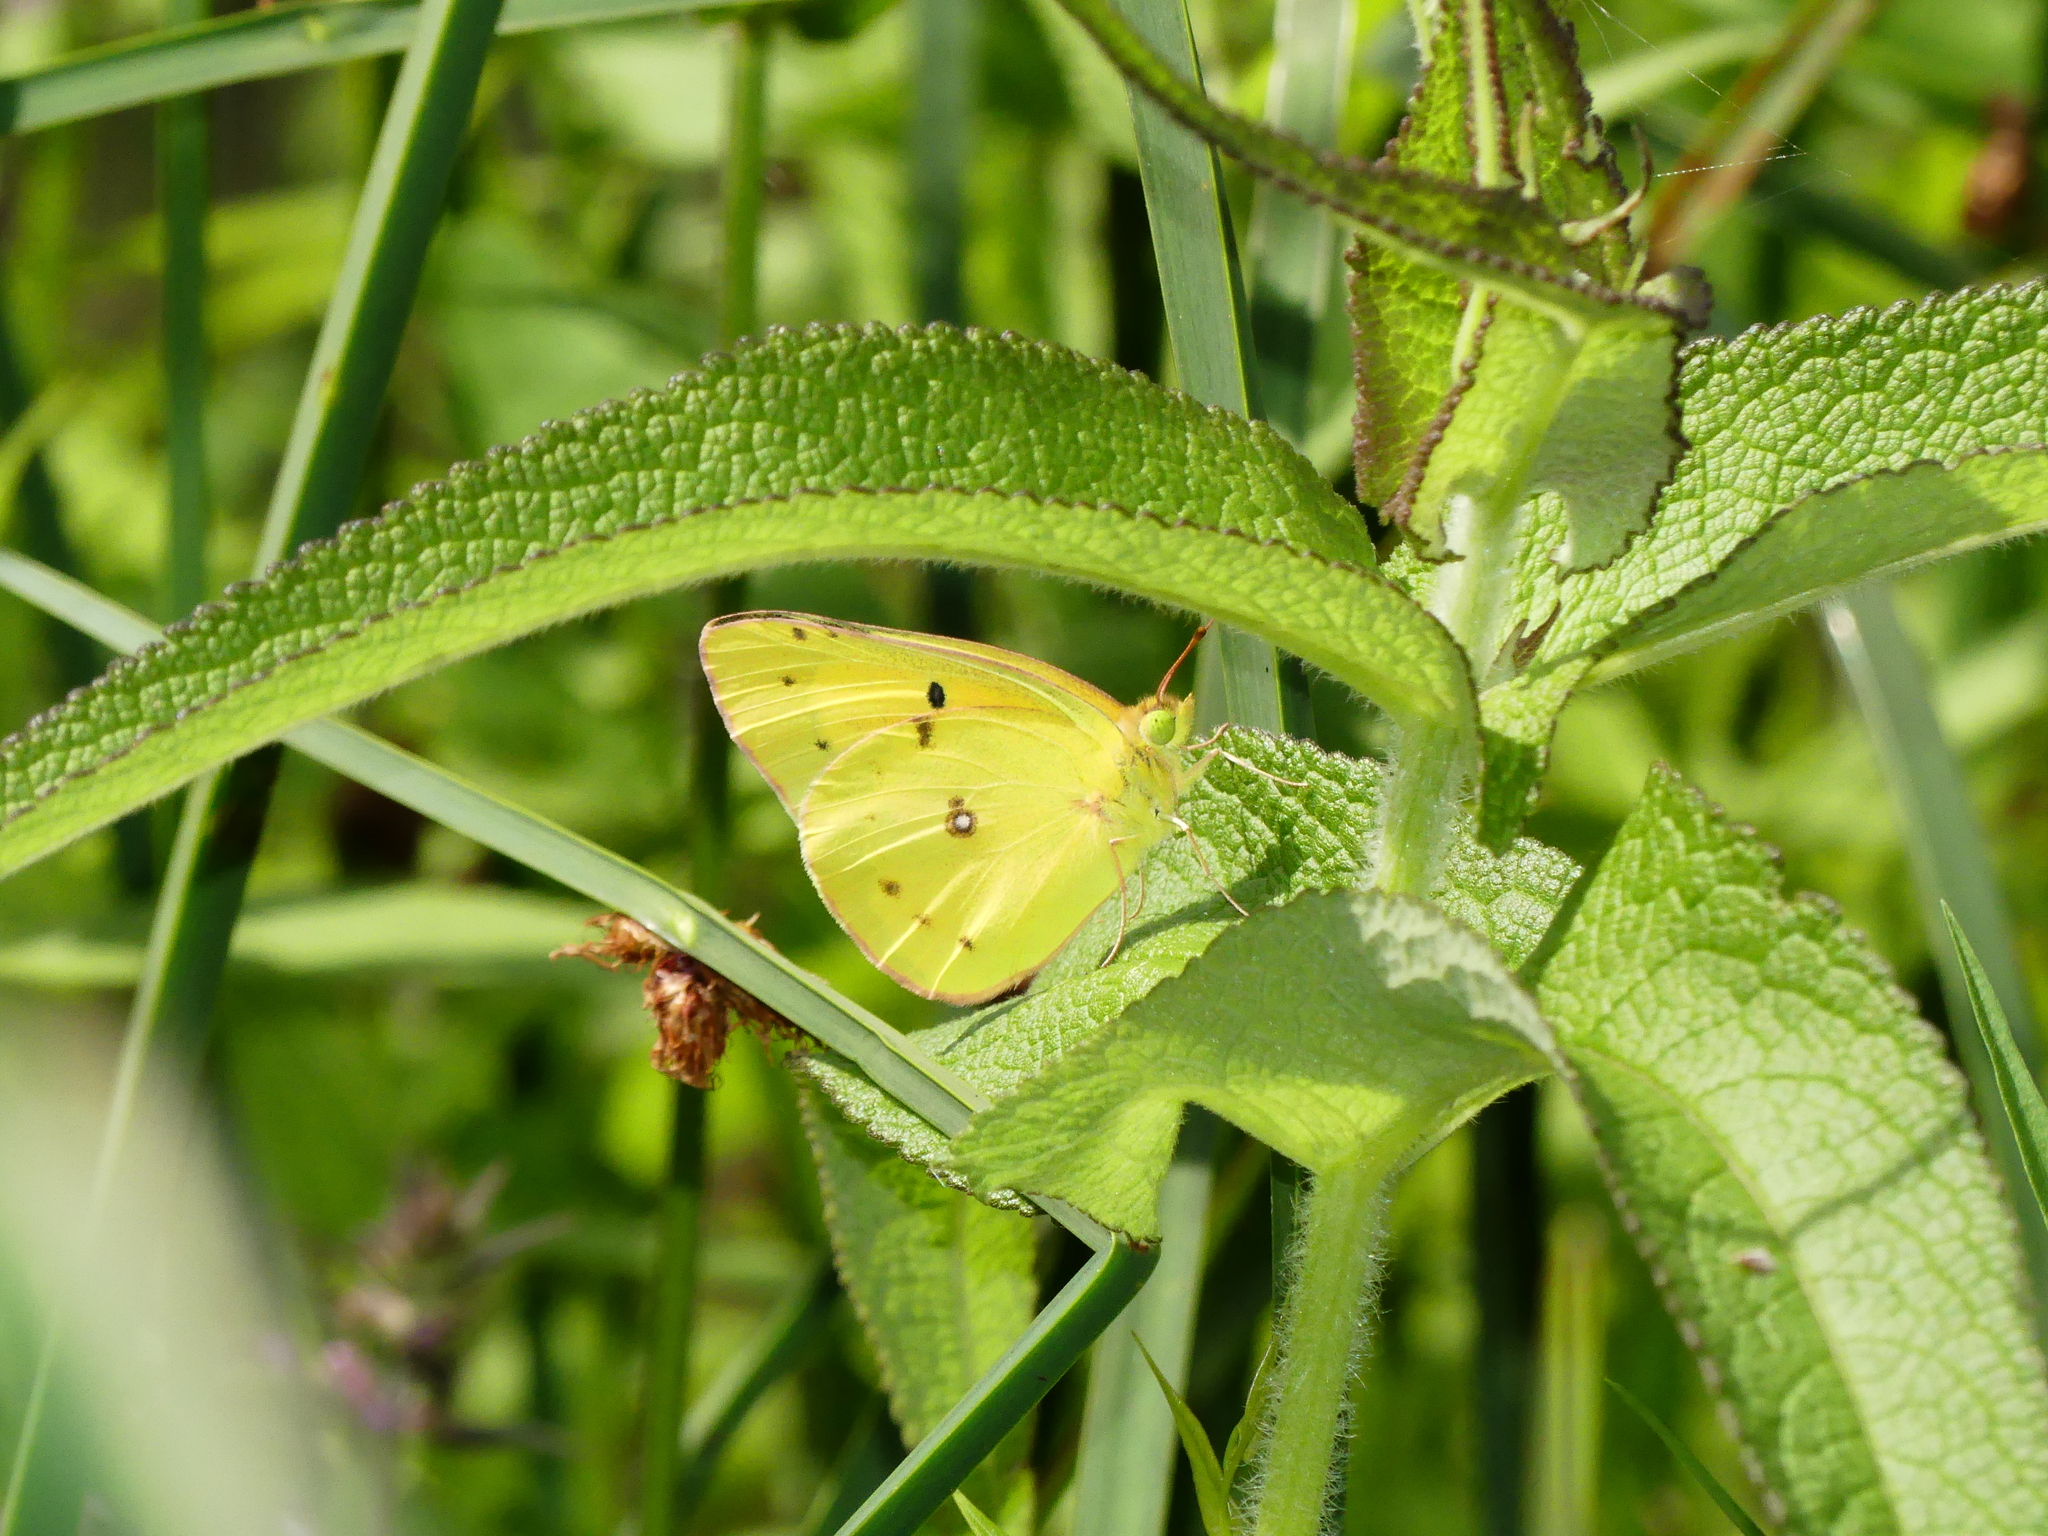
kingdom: Animalia
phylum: Arthropoda
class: Insecta
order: Lepidoptera
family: Pieridae
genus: Colias
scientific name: Colias philodice
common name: Clouded sulphur
